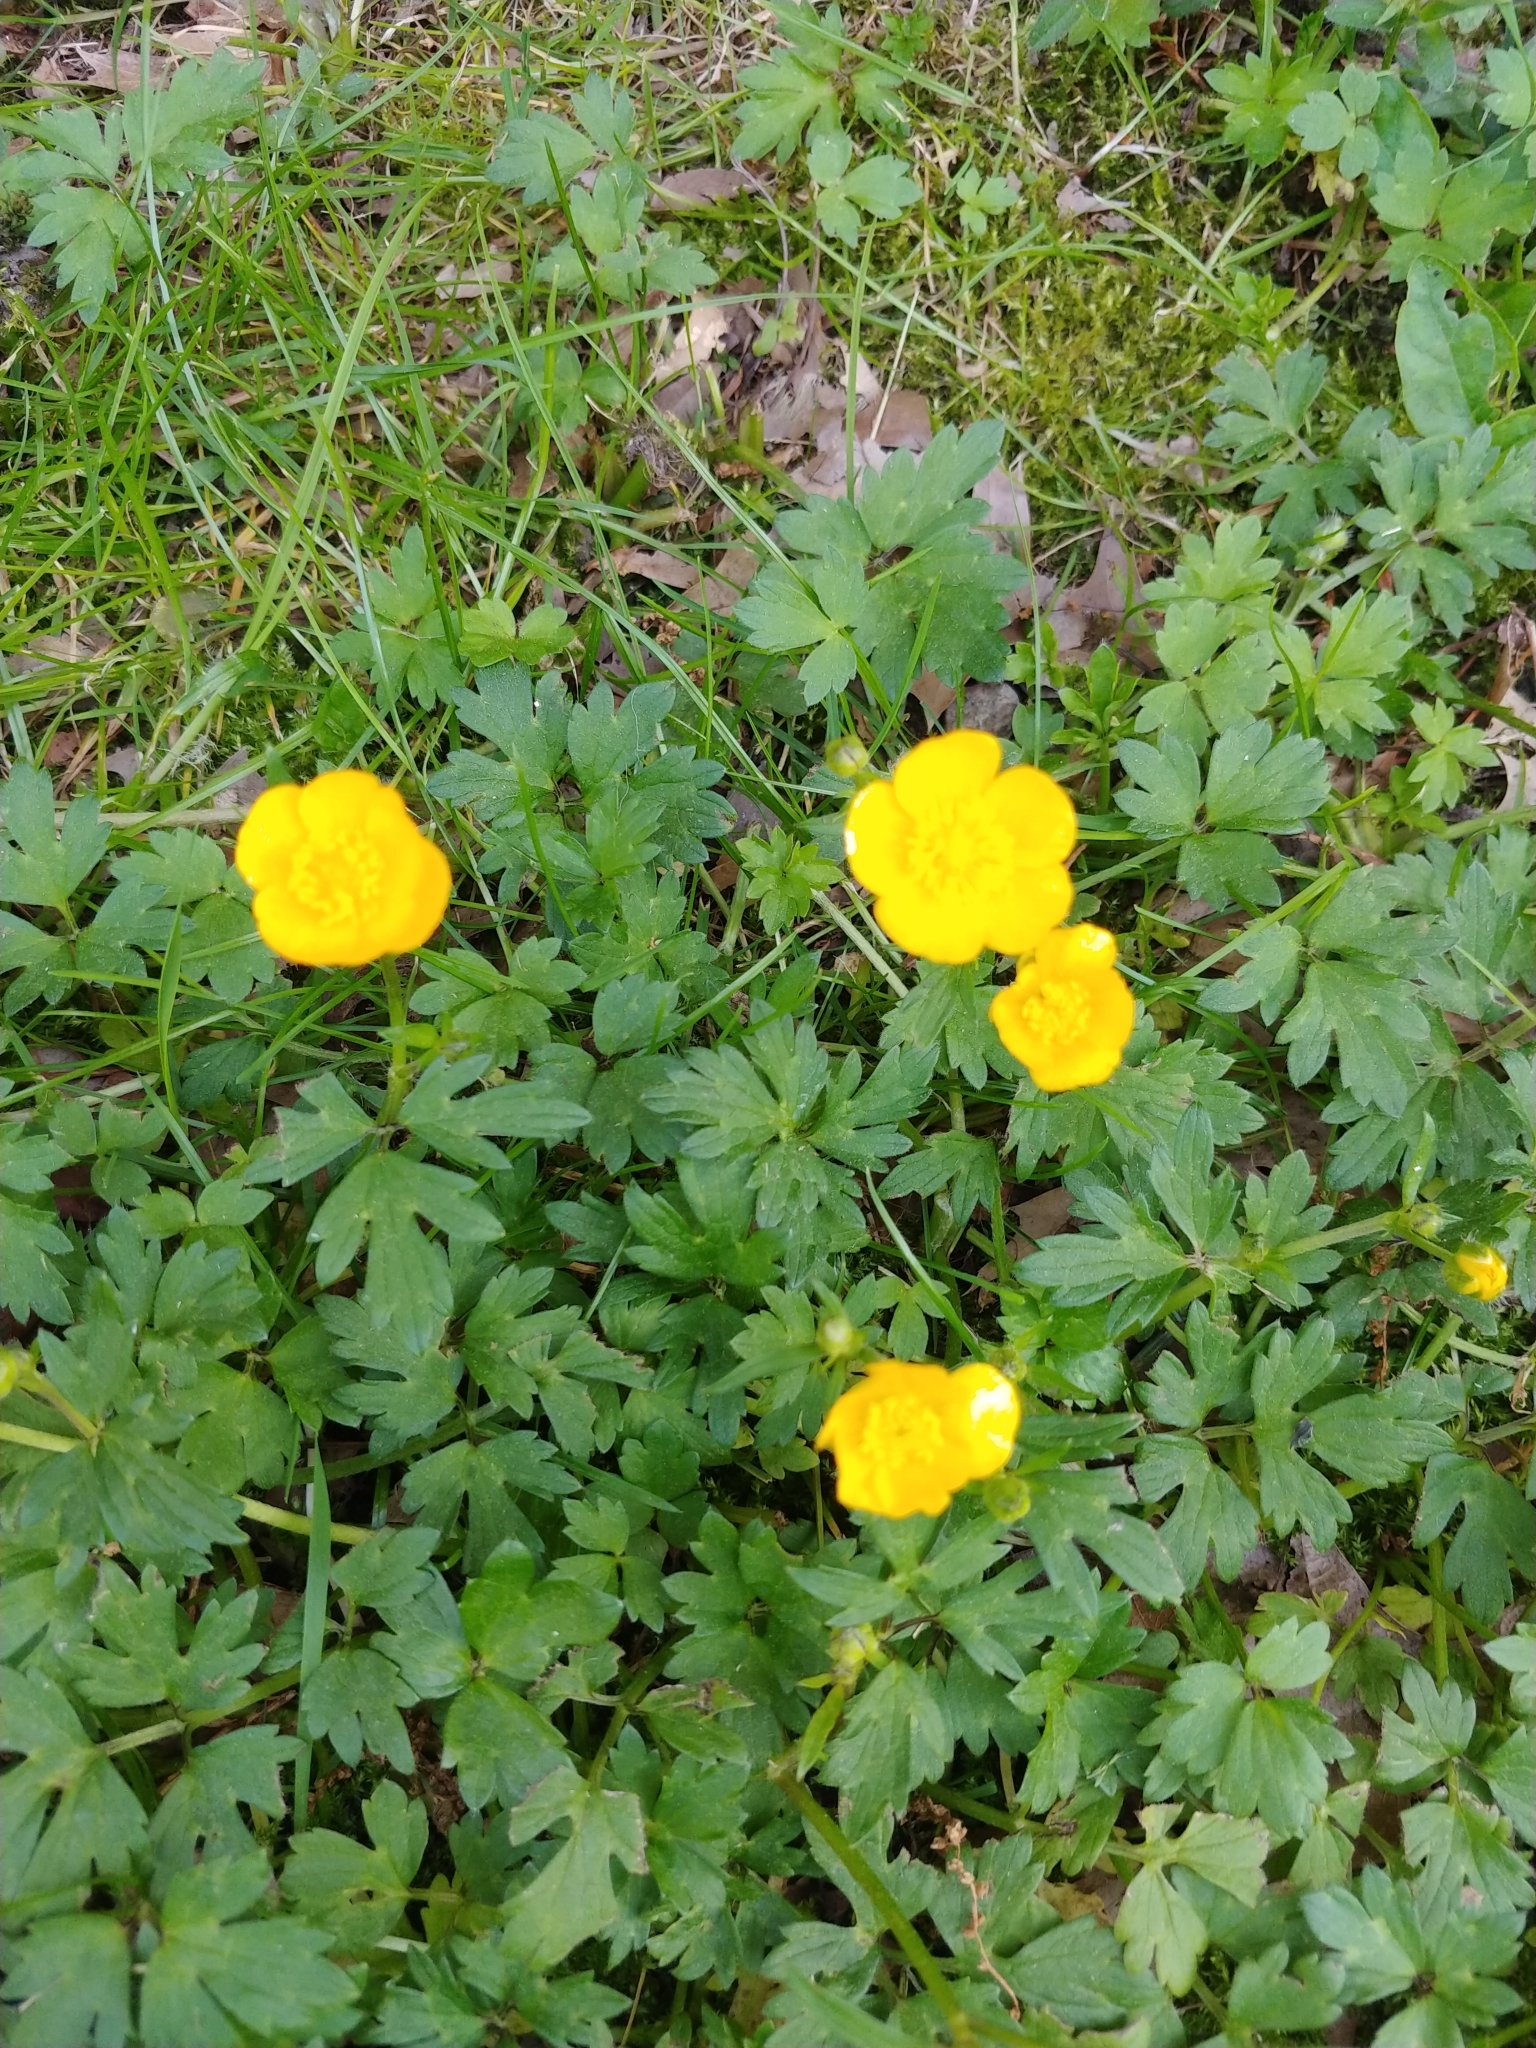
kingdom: Plantae
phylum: Tracheophyta
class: Magnoliopsida
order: Ranunculales
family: Ranunculaceae
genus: Ranunculus
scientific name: Ranunculus repens
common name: Creeping buttercup
